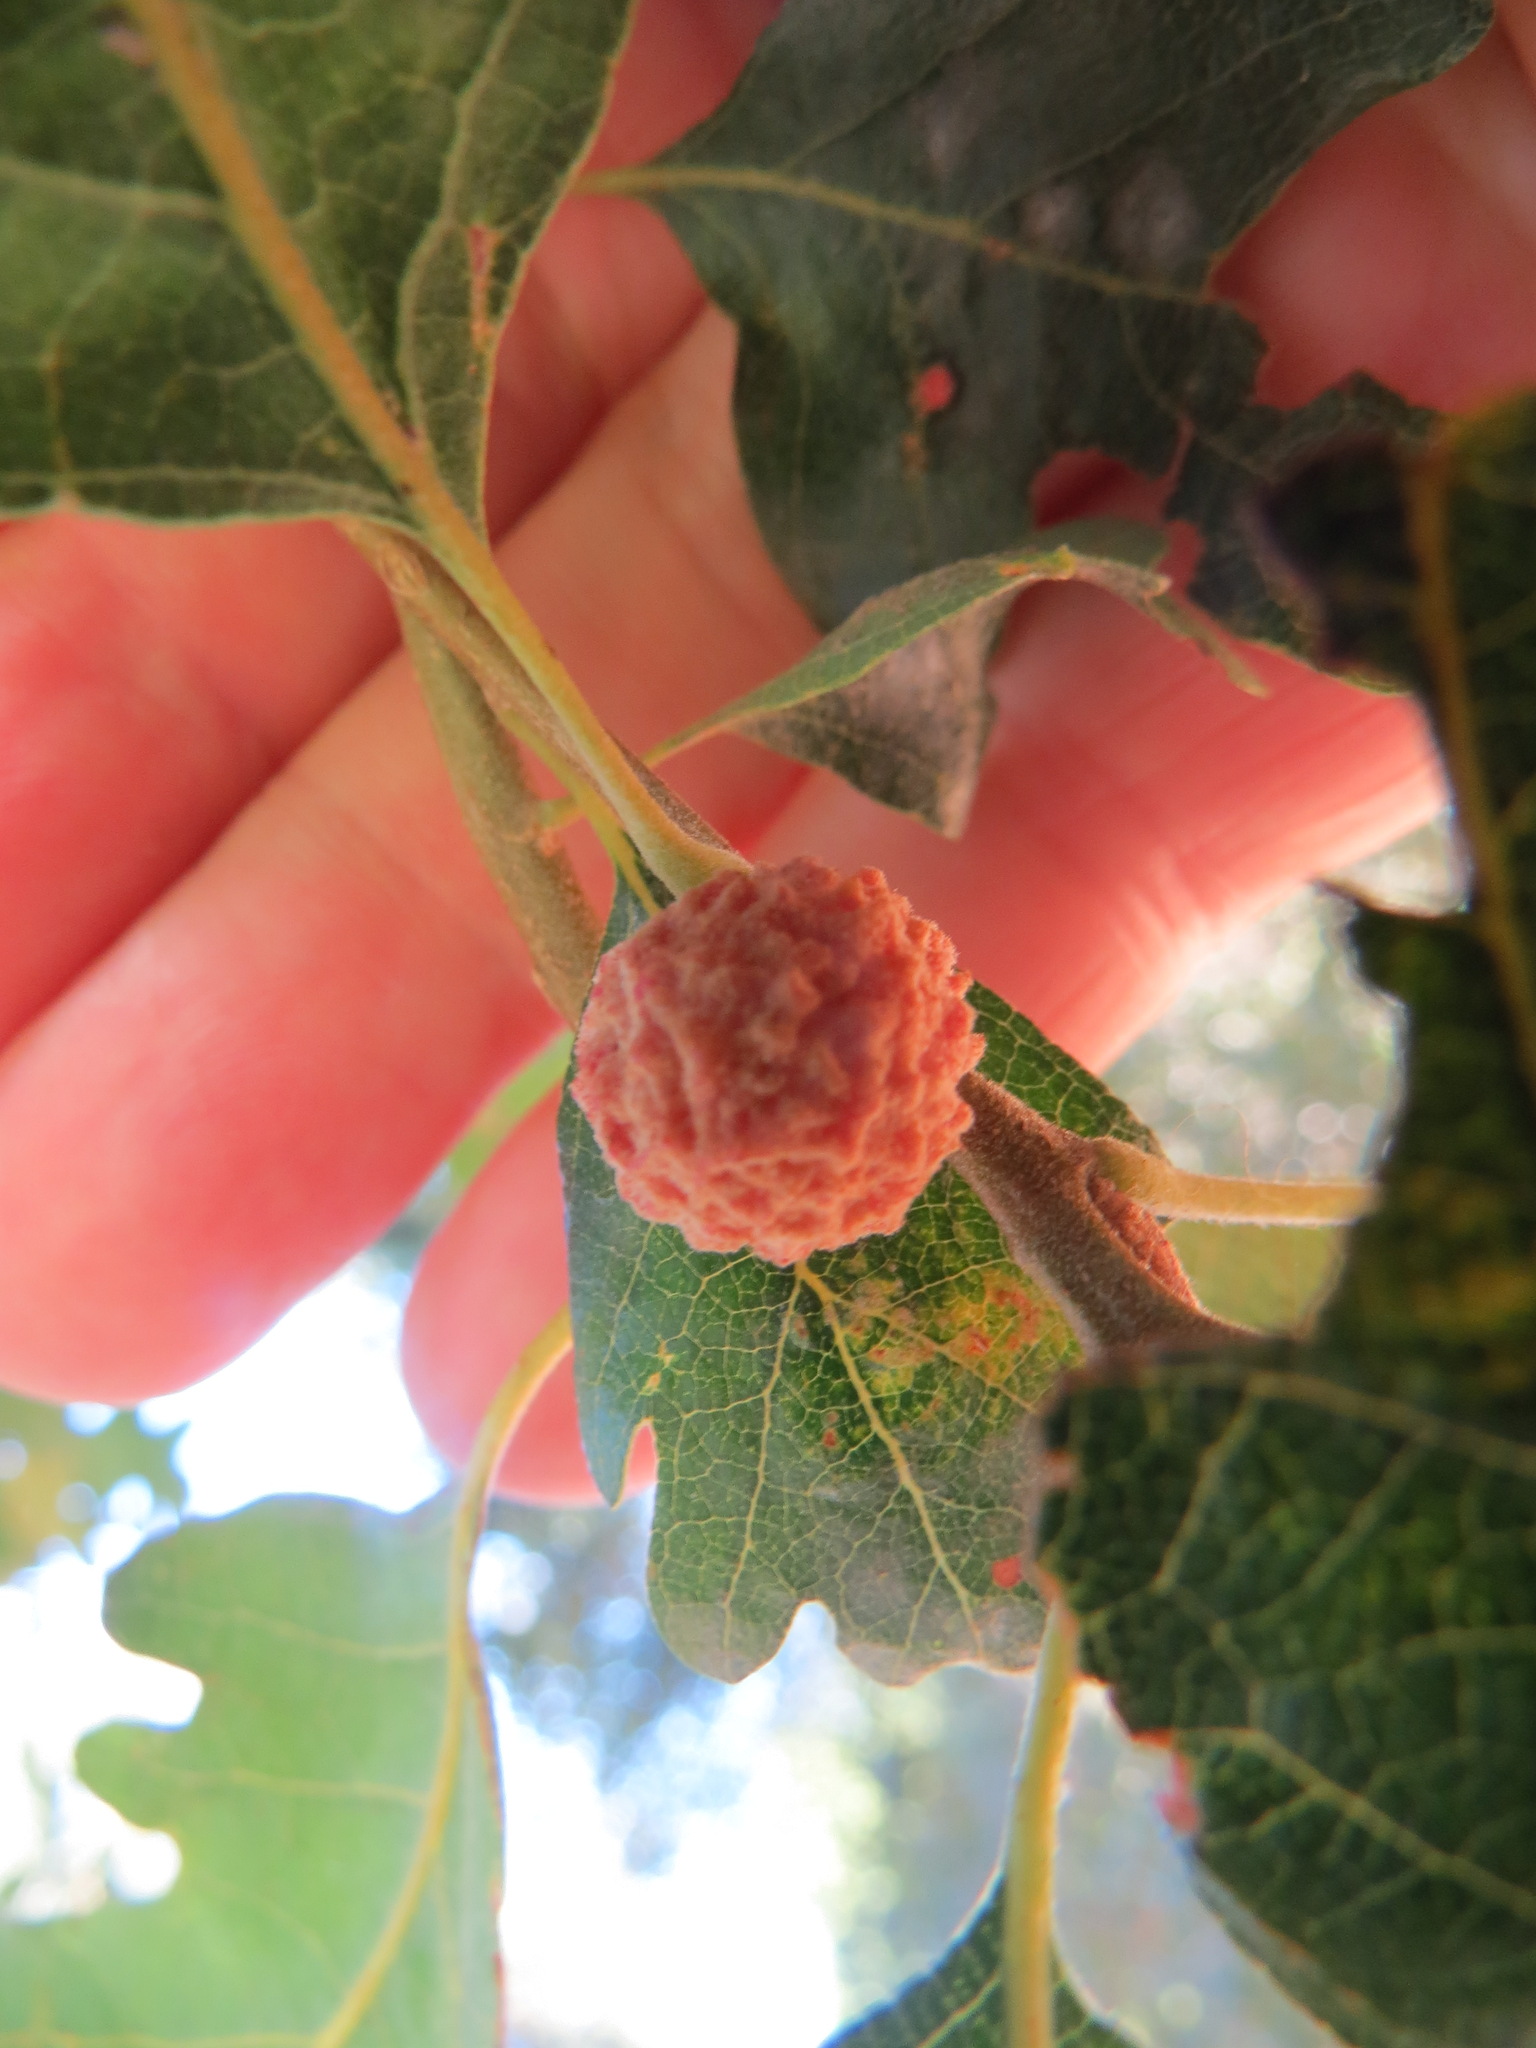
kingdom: Animalia
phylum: Arthropoda
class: Insecta
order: Hymenoptera
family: Cynipidae
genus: Cynips
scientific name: Cynips conspicua
